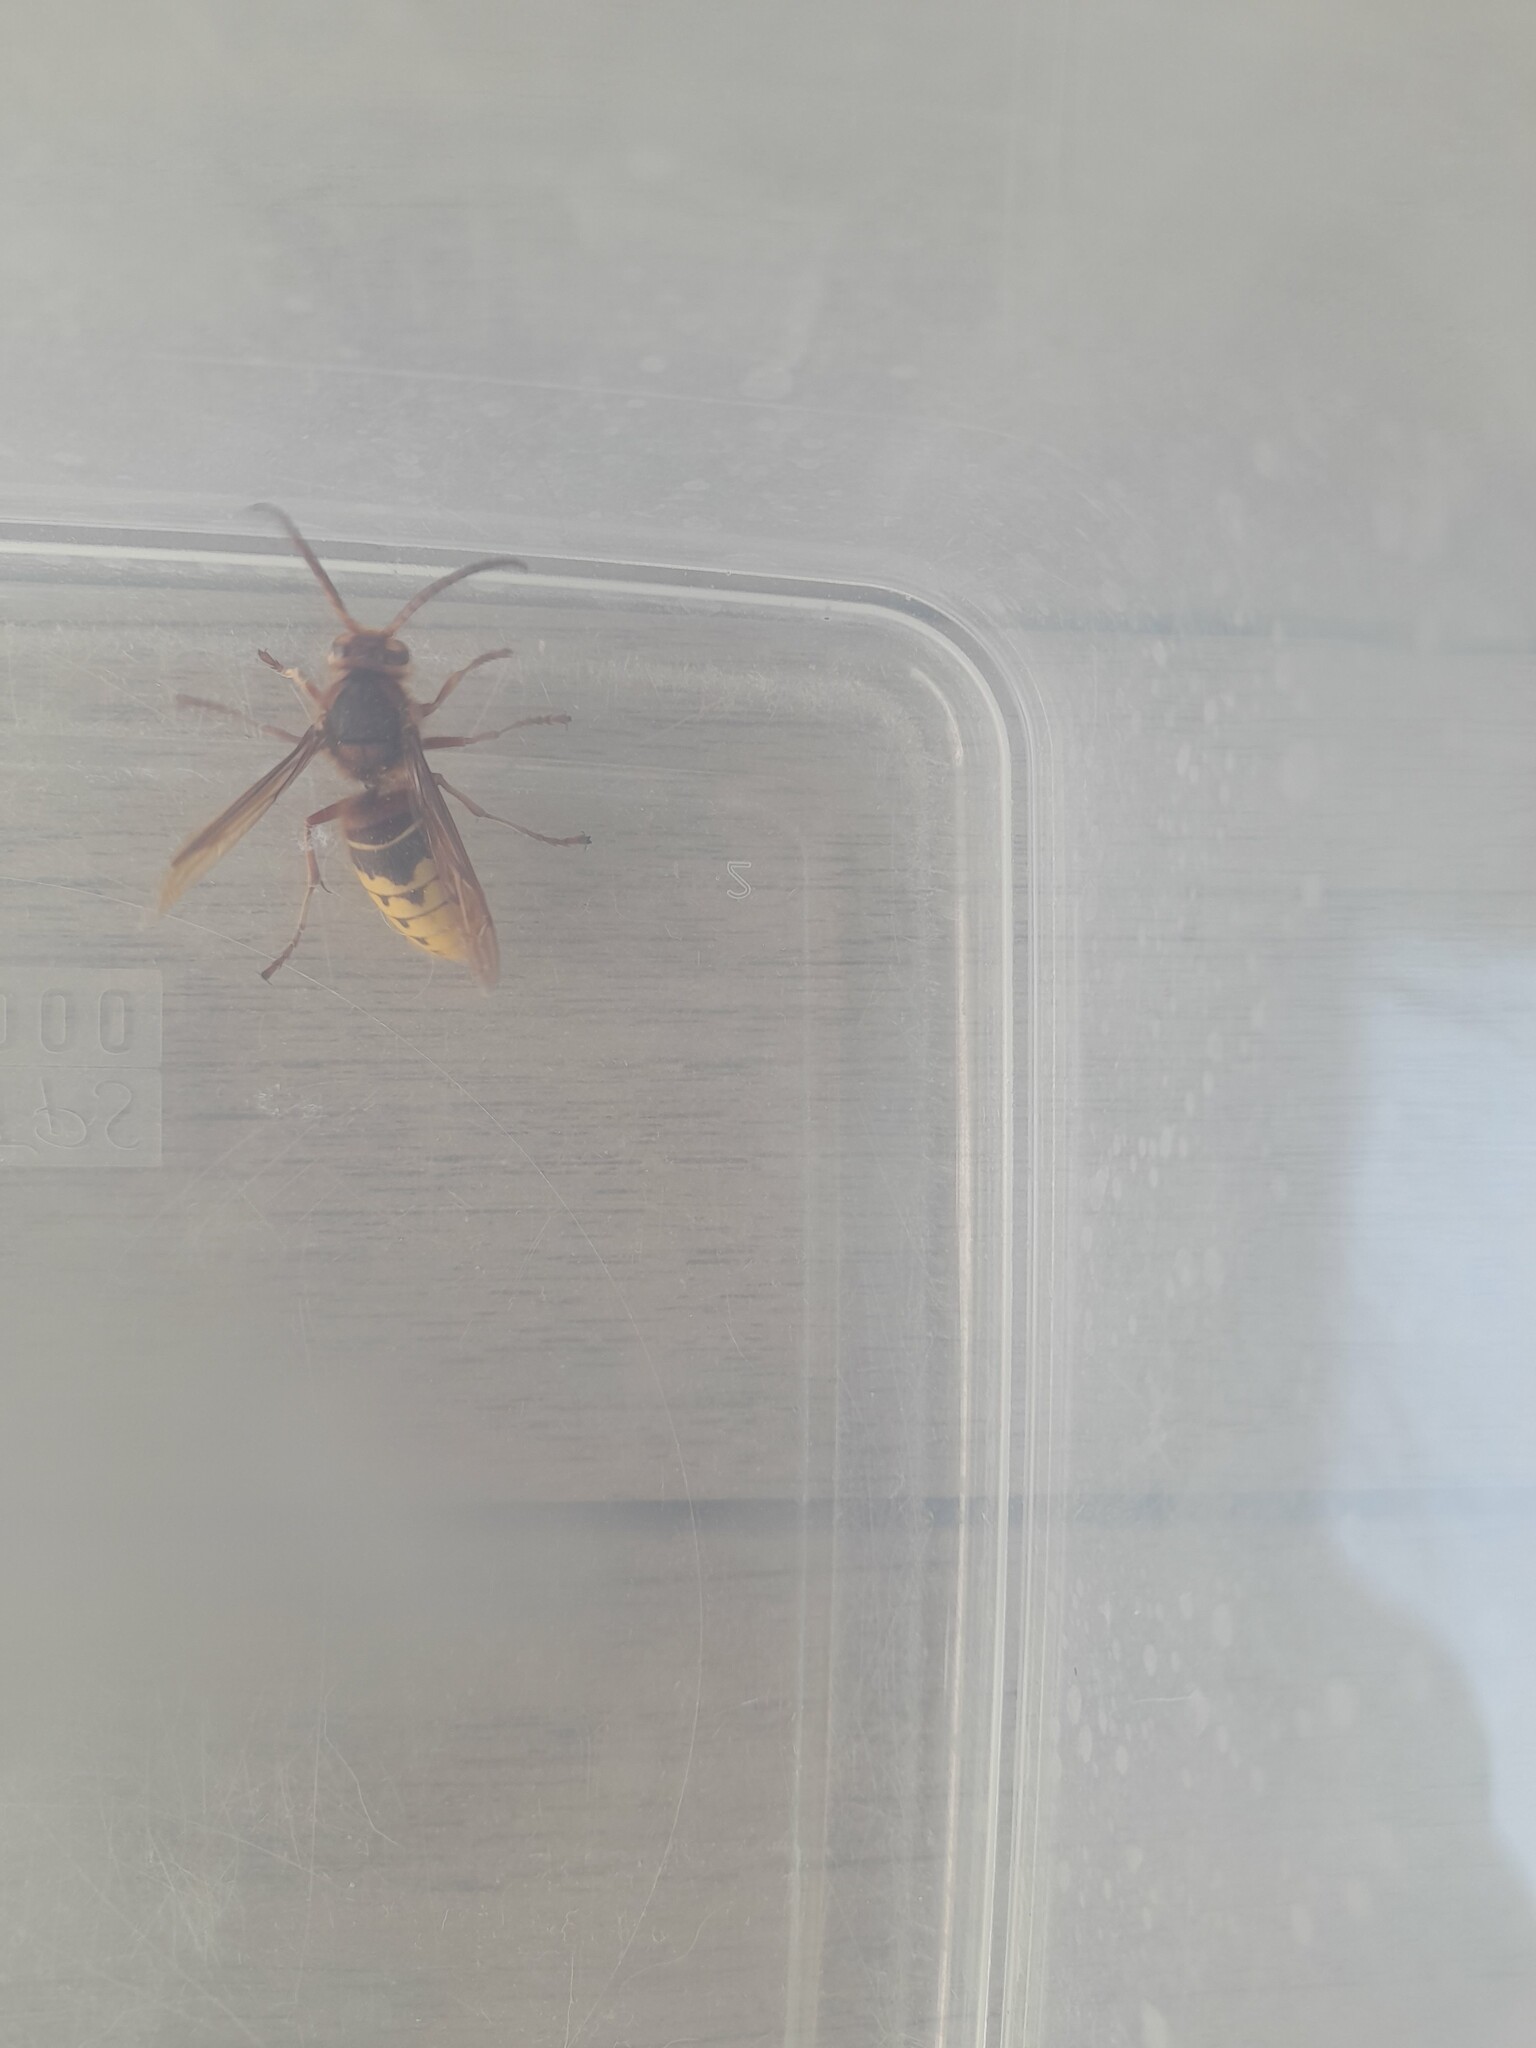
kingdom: Animalia
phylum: Arthropoda
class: Insecta
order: Hymenoptera
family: Vespidae
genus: Vespa
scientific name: Vespa crabro
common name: Hornet
